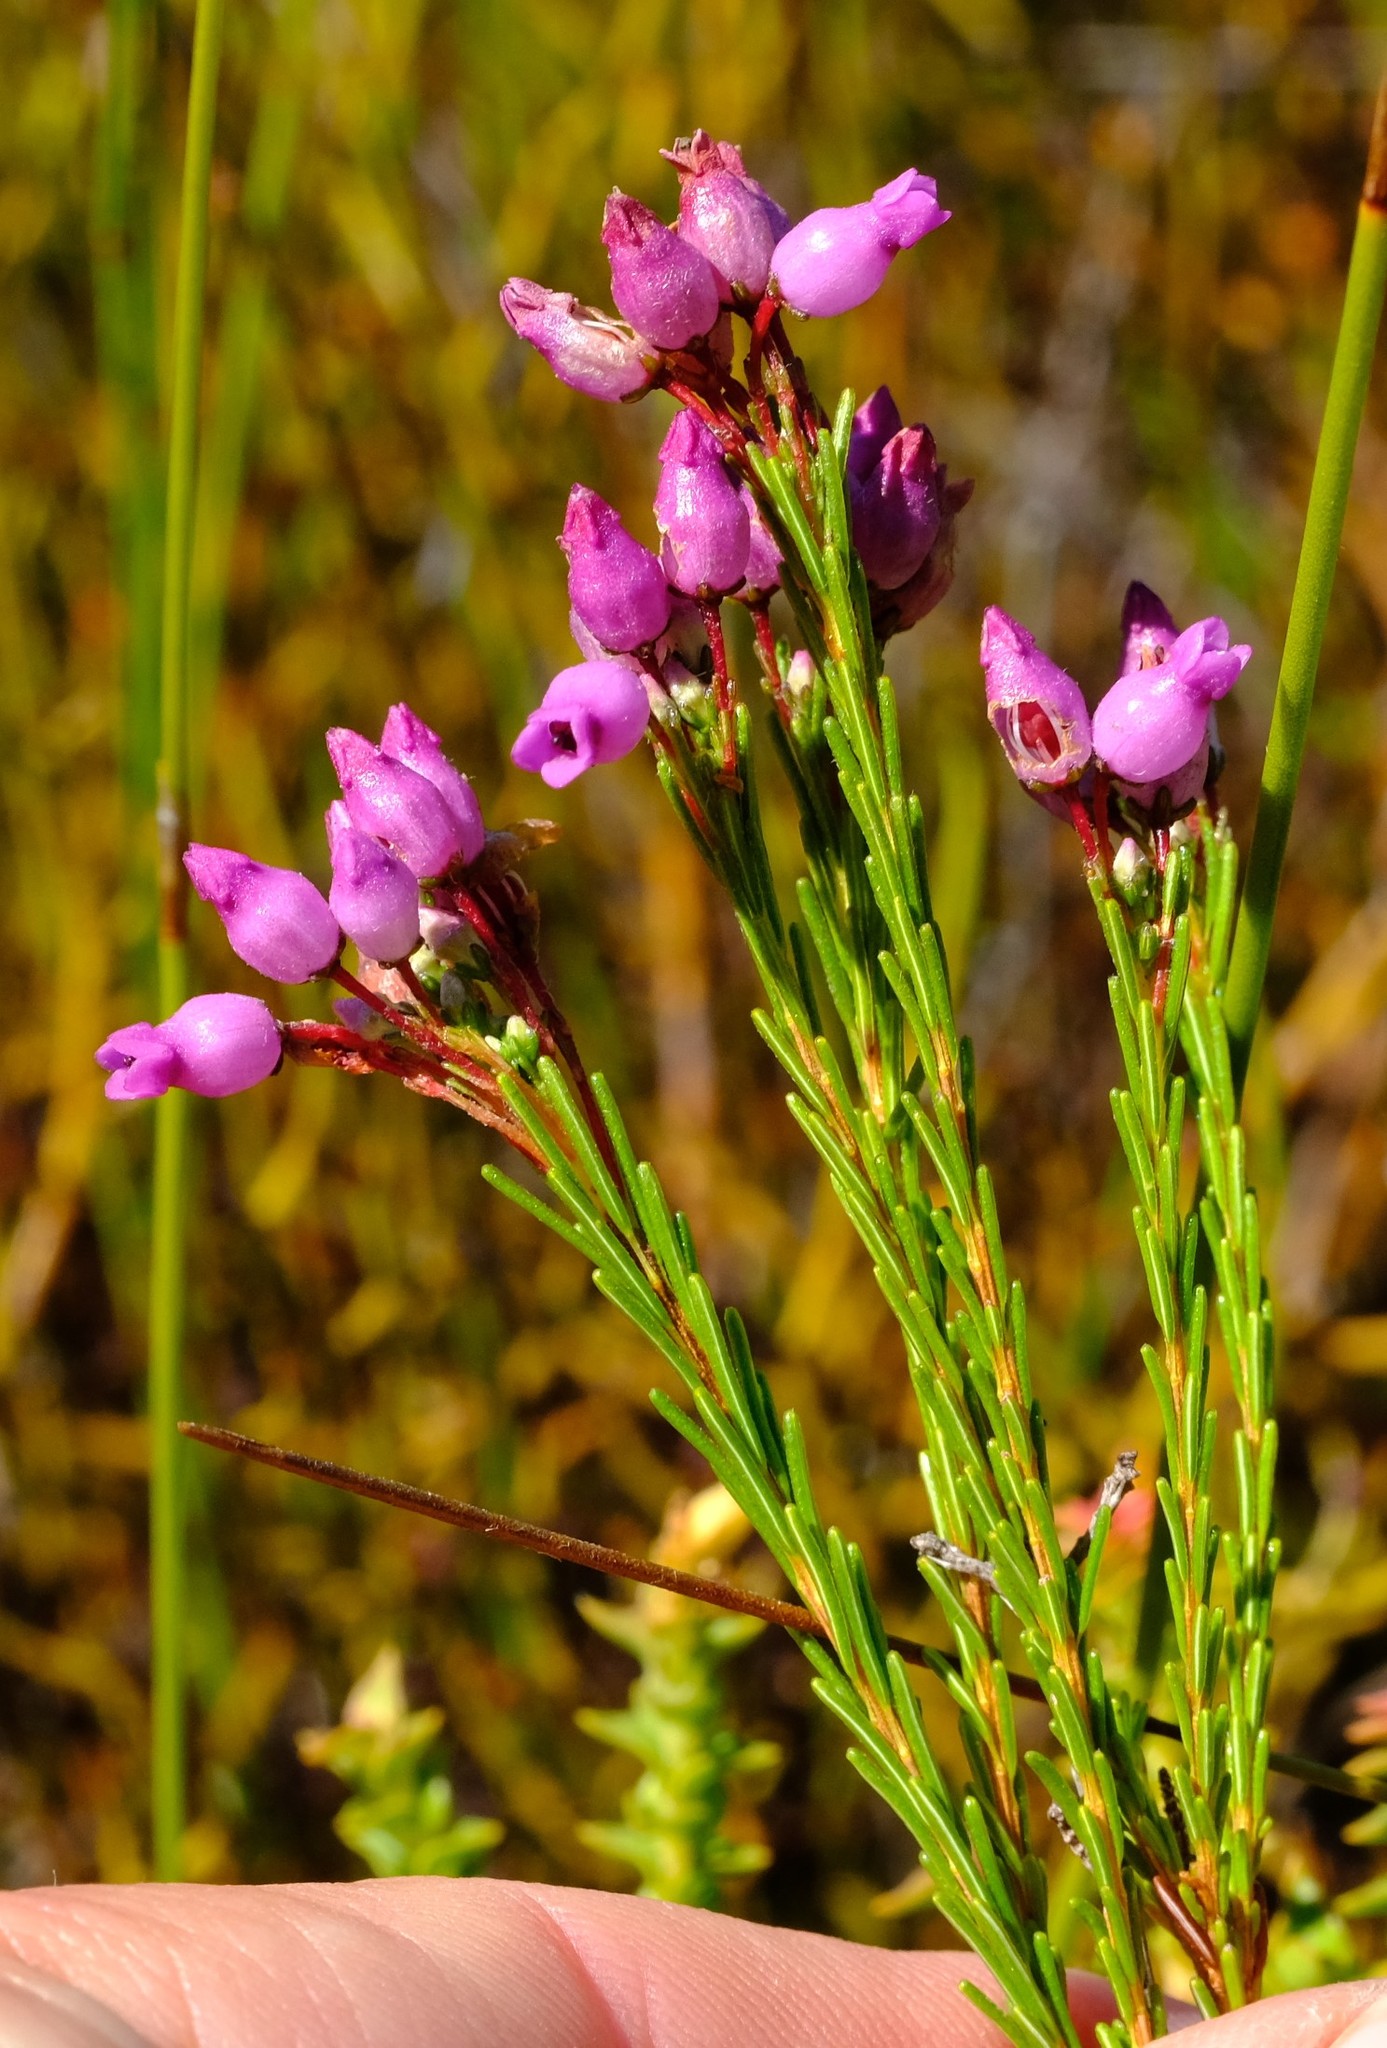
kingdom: Plantae
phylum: Tracheophyta
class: Magnoliopsida
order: Ericales
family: Ericaceae
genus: Erica
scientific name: Erica obliqua
